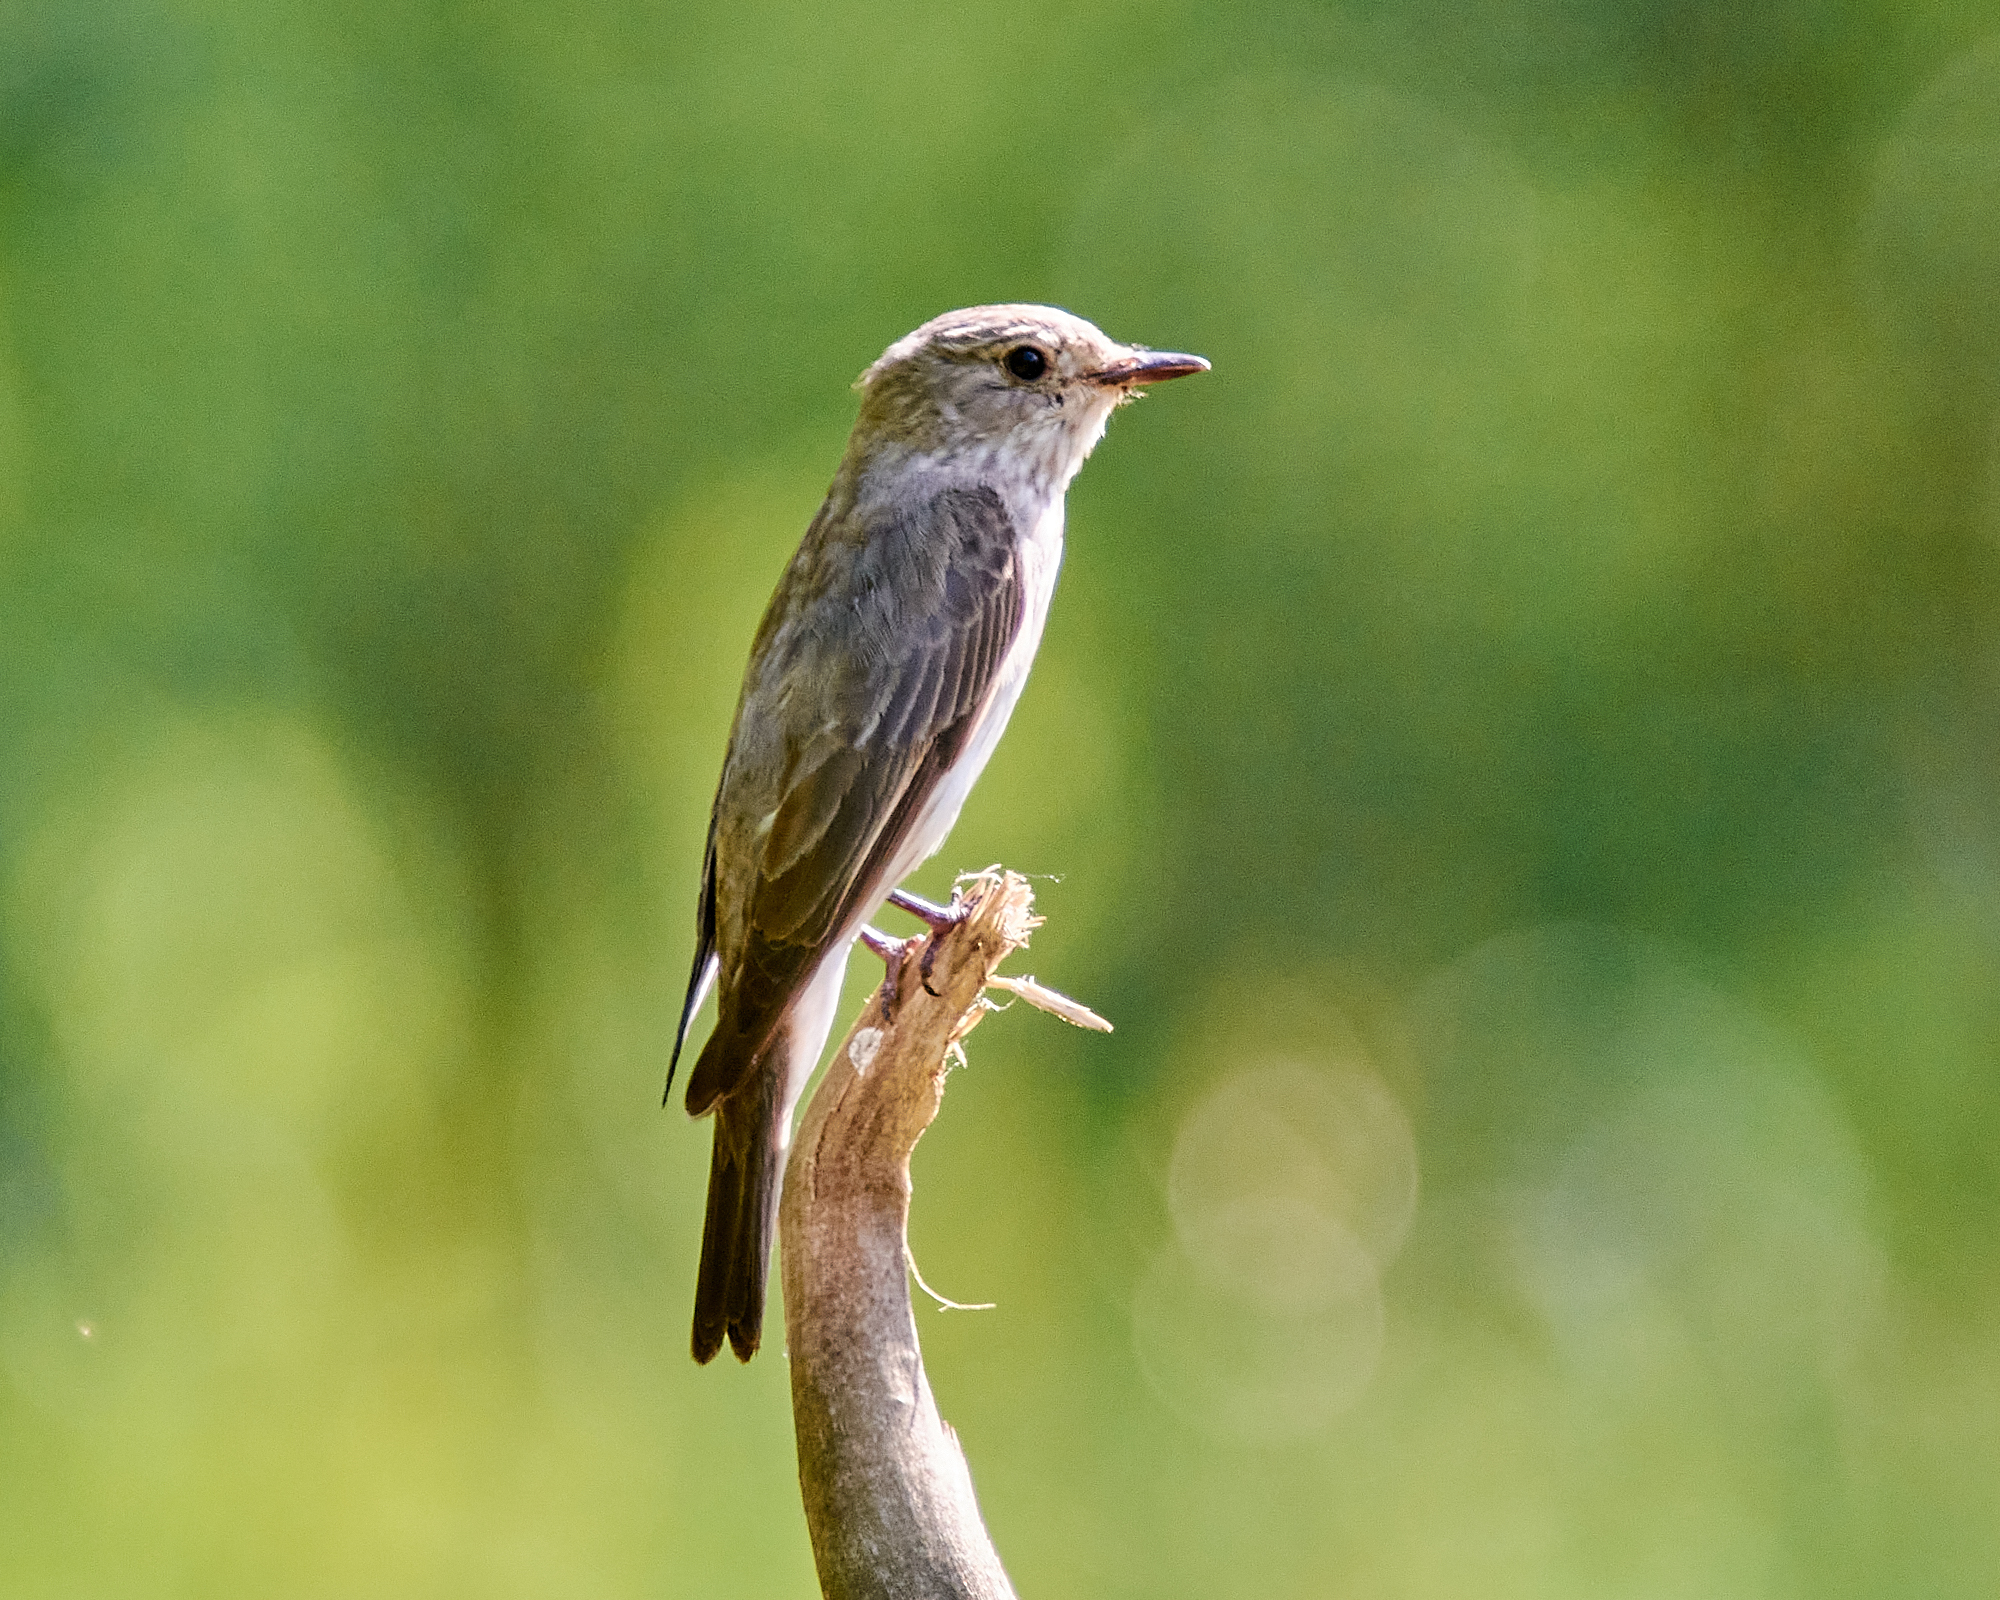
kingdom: Animalia
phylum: Chordata
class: Aves
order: Passeriformes
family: Muscicapidae
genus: Muscicapa
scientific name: Muscicapa striata
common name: Spotted flycatcher
